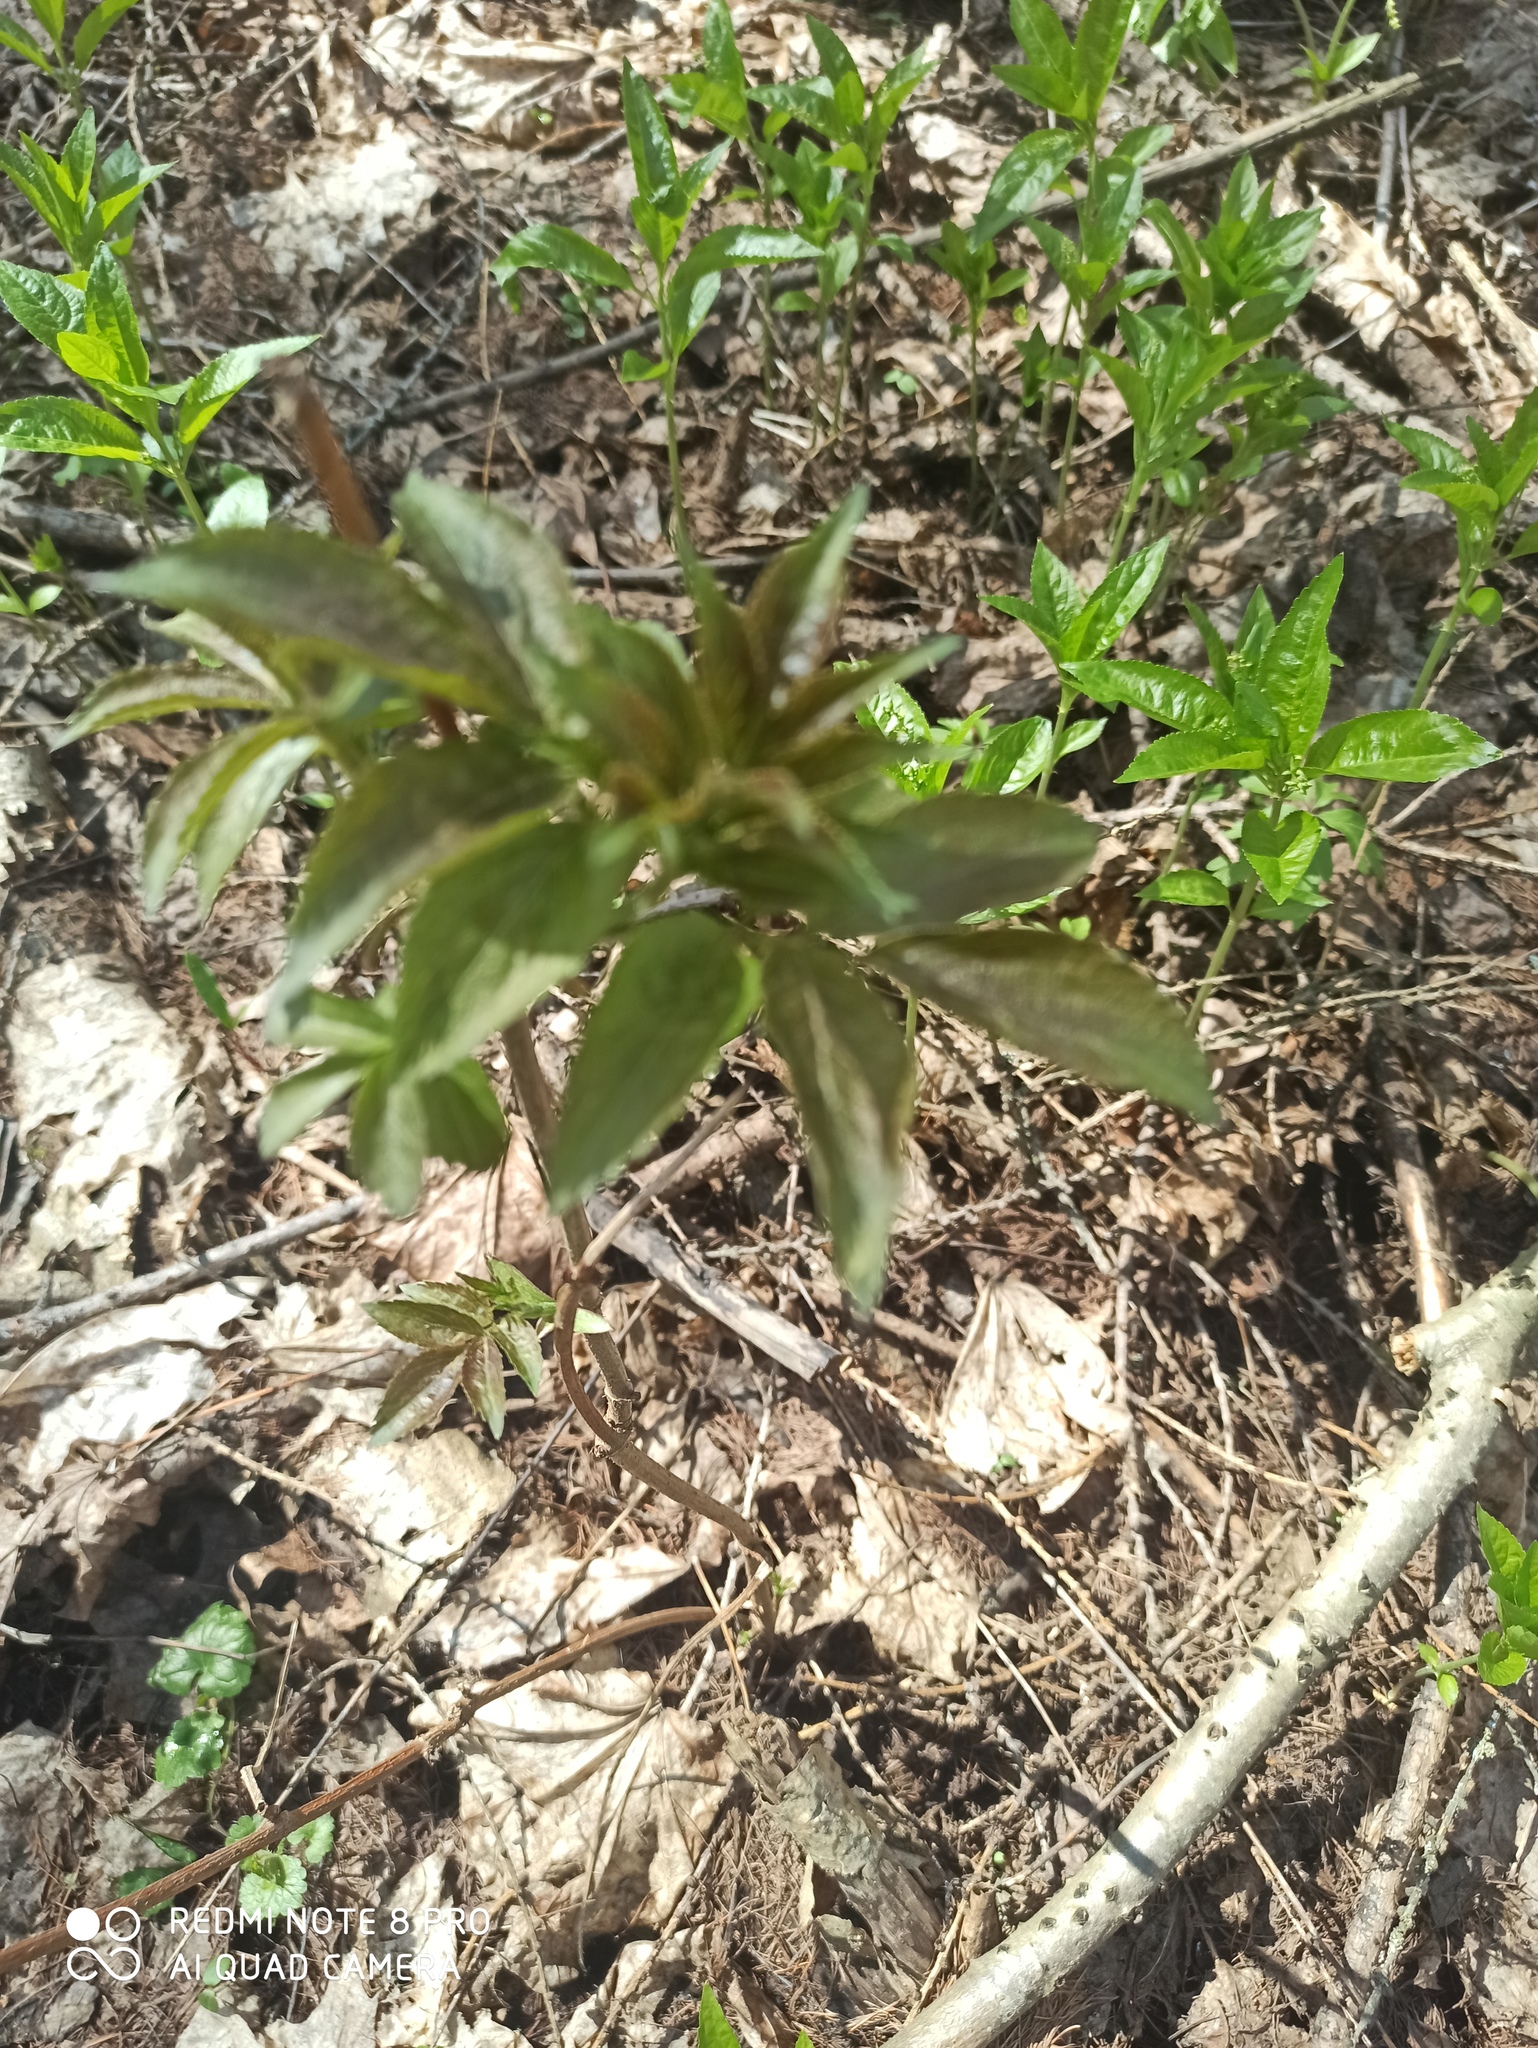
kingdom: Plantae
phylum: Tracheophyta
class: Magnoliopsida
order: Dipsacales
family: Viburnaceae
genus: Sambucus
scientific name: Sambucus racemosa
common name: Red-berried elder
